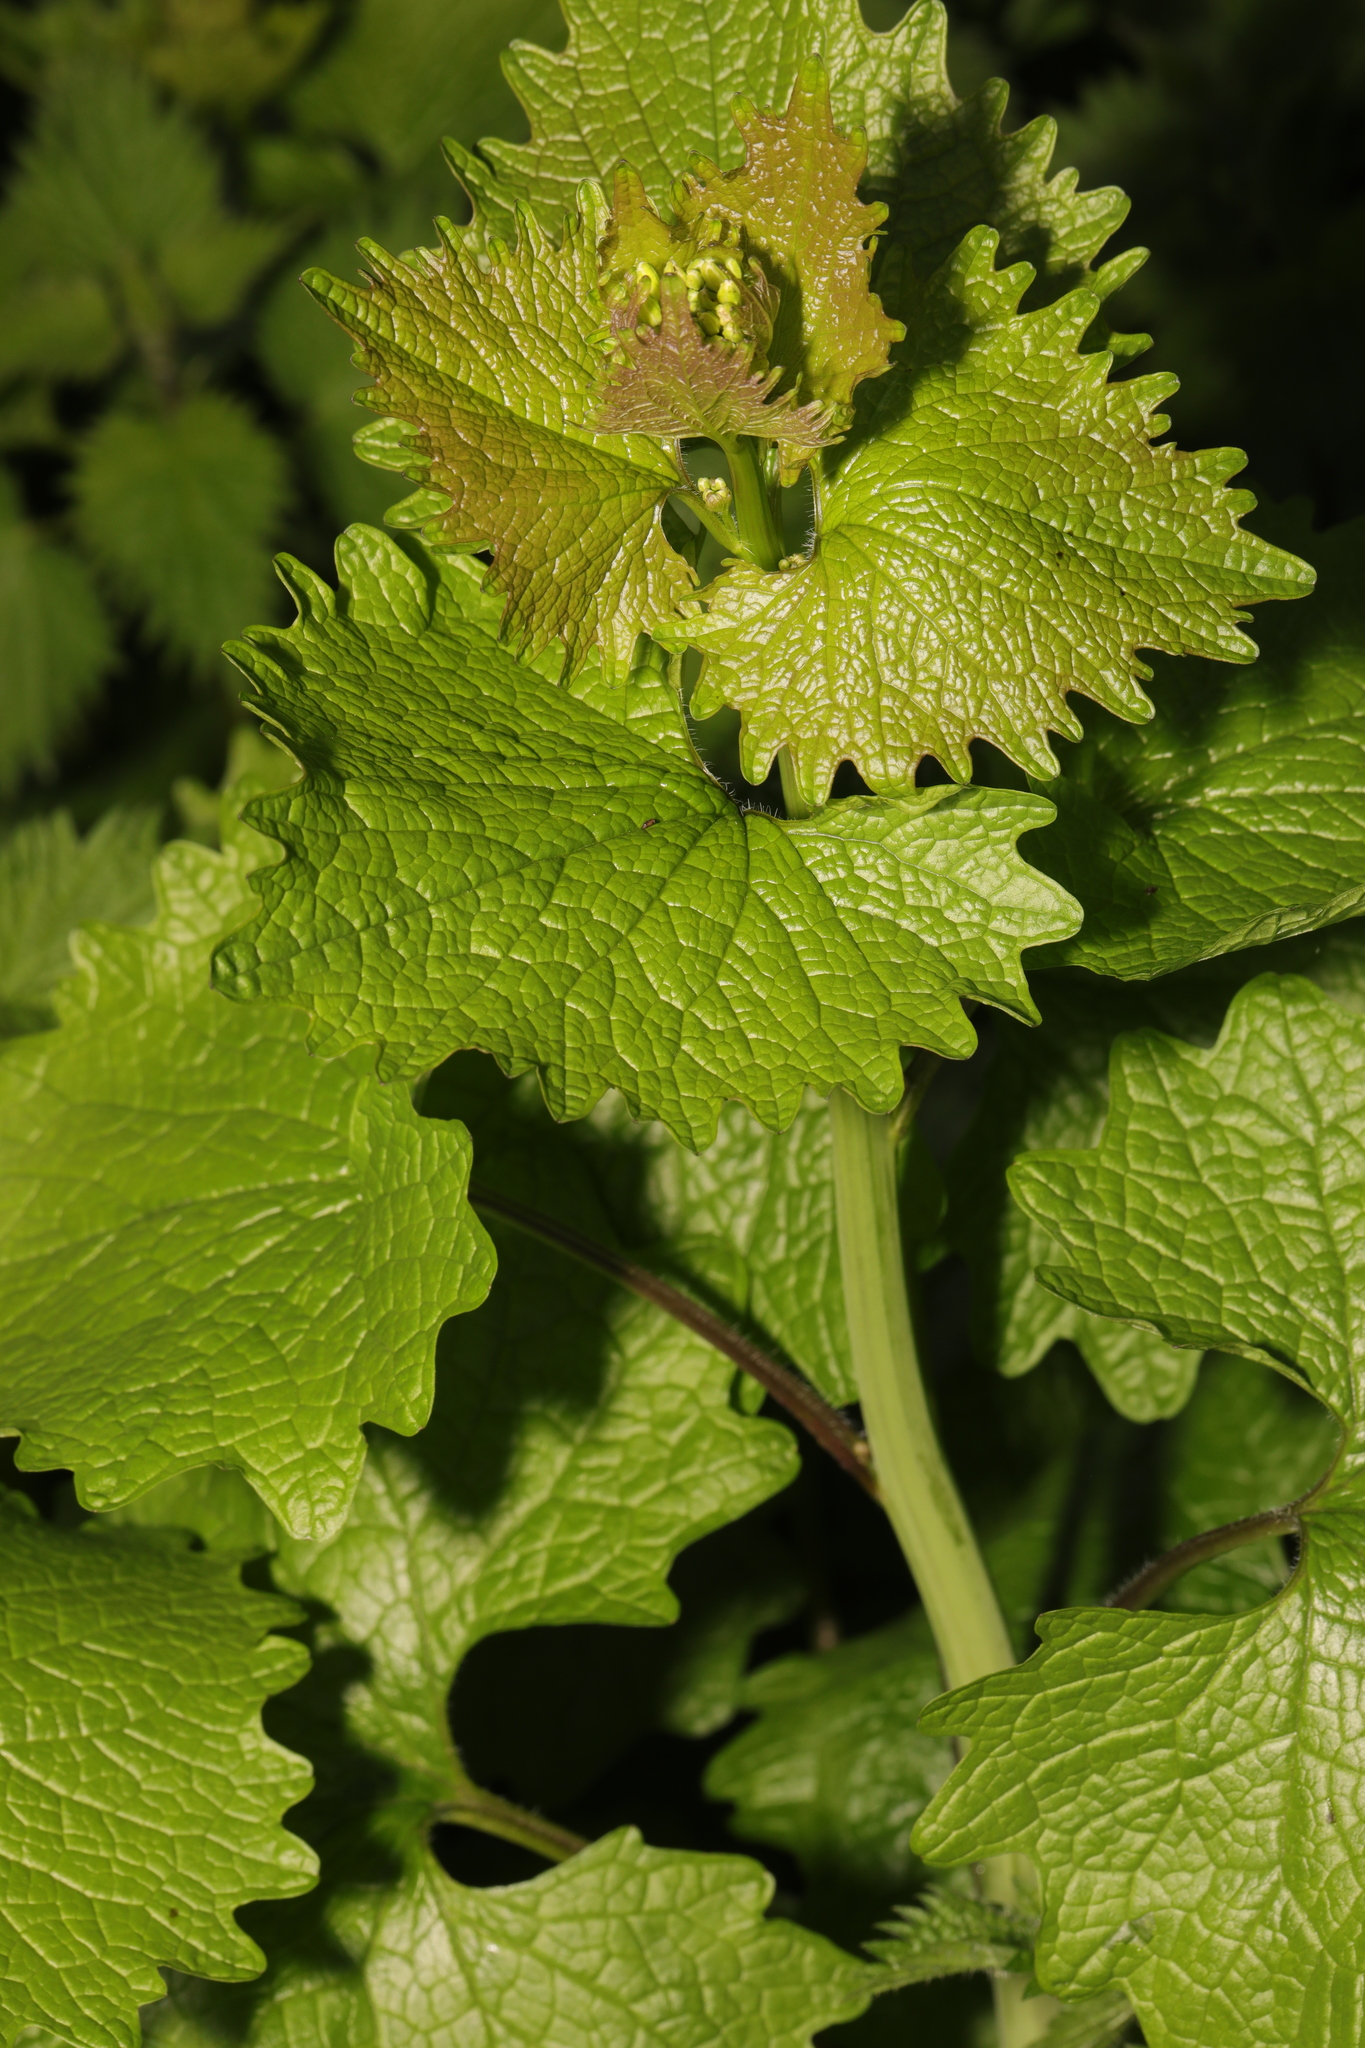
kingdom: Plantae
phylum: Tracheophyta
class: Magnoliopsida
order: Brassicales
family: Brassicaceae
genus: Alliaria
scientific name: Alliaria petiolata
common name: Garlic mustard
